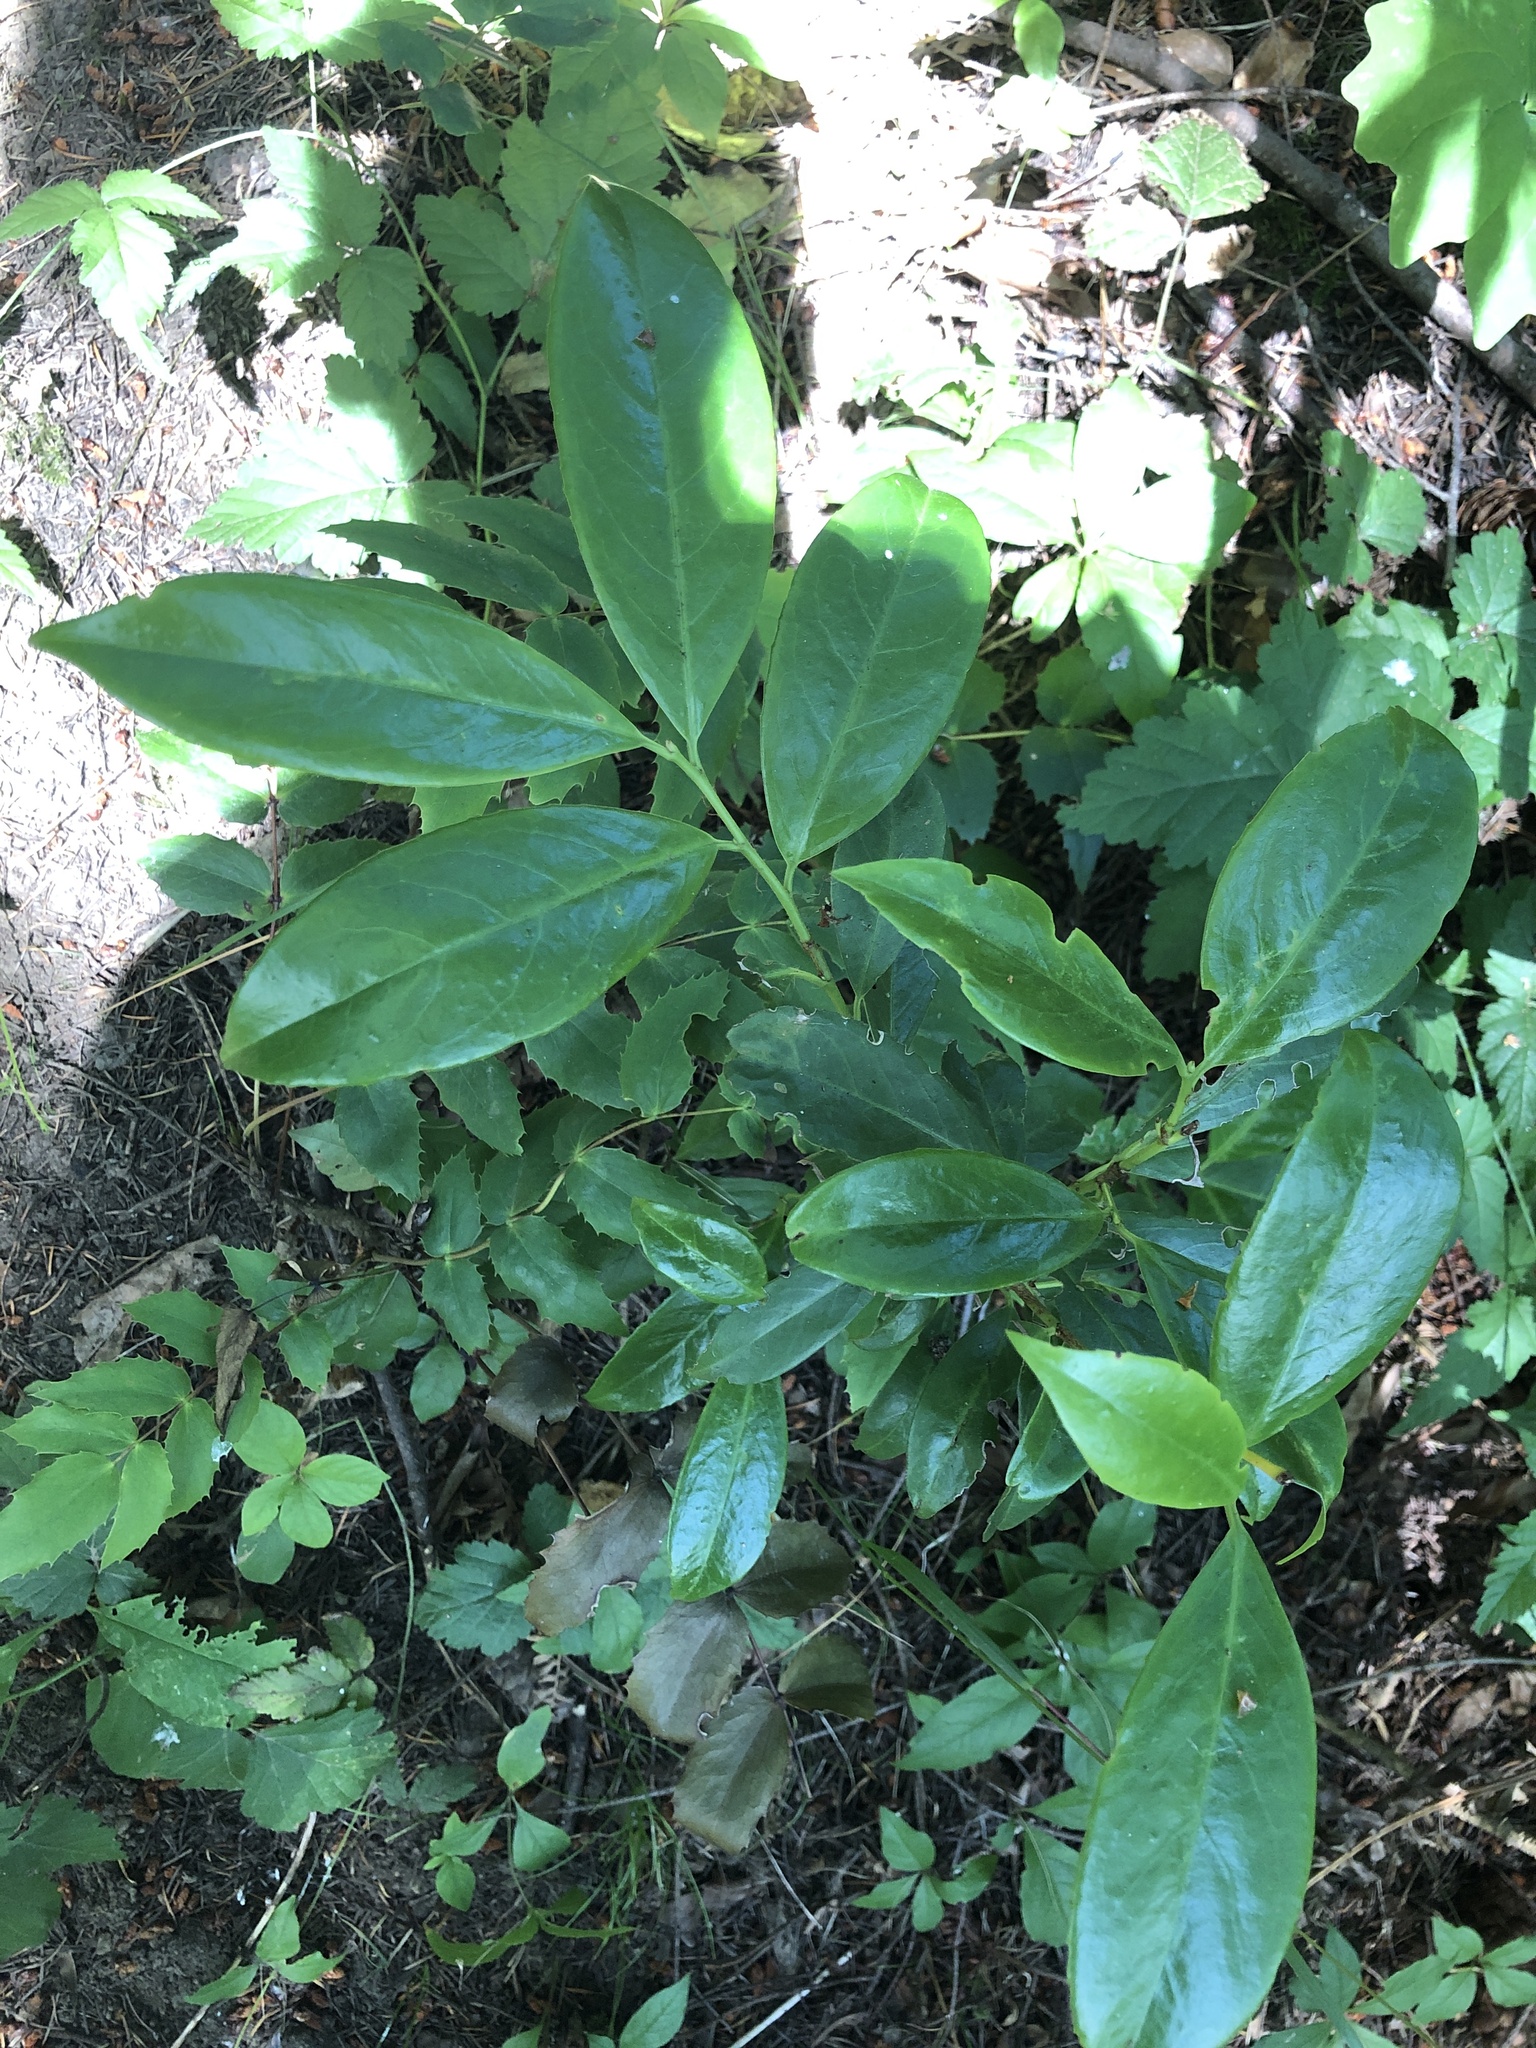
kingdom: Plantae
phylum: Tracheophyta
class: Magnoliopsida
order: Rosales
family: Rosaceae
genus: Prunus
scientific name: Prunus laurocerasus
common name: Cherry laurel
